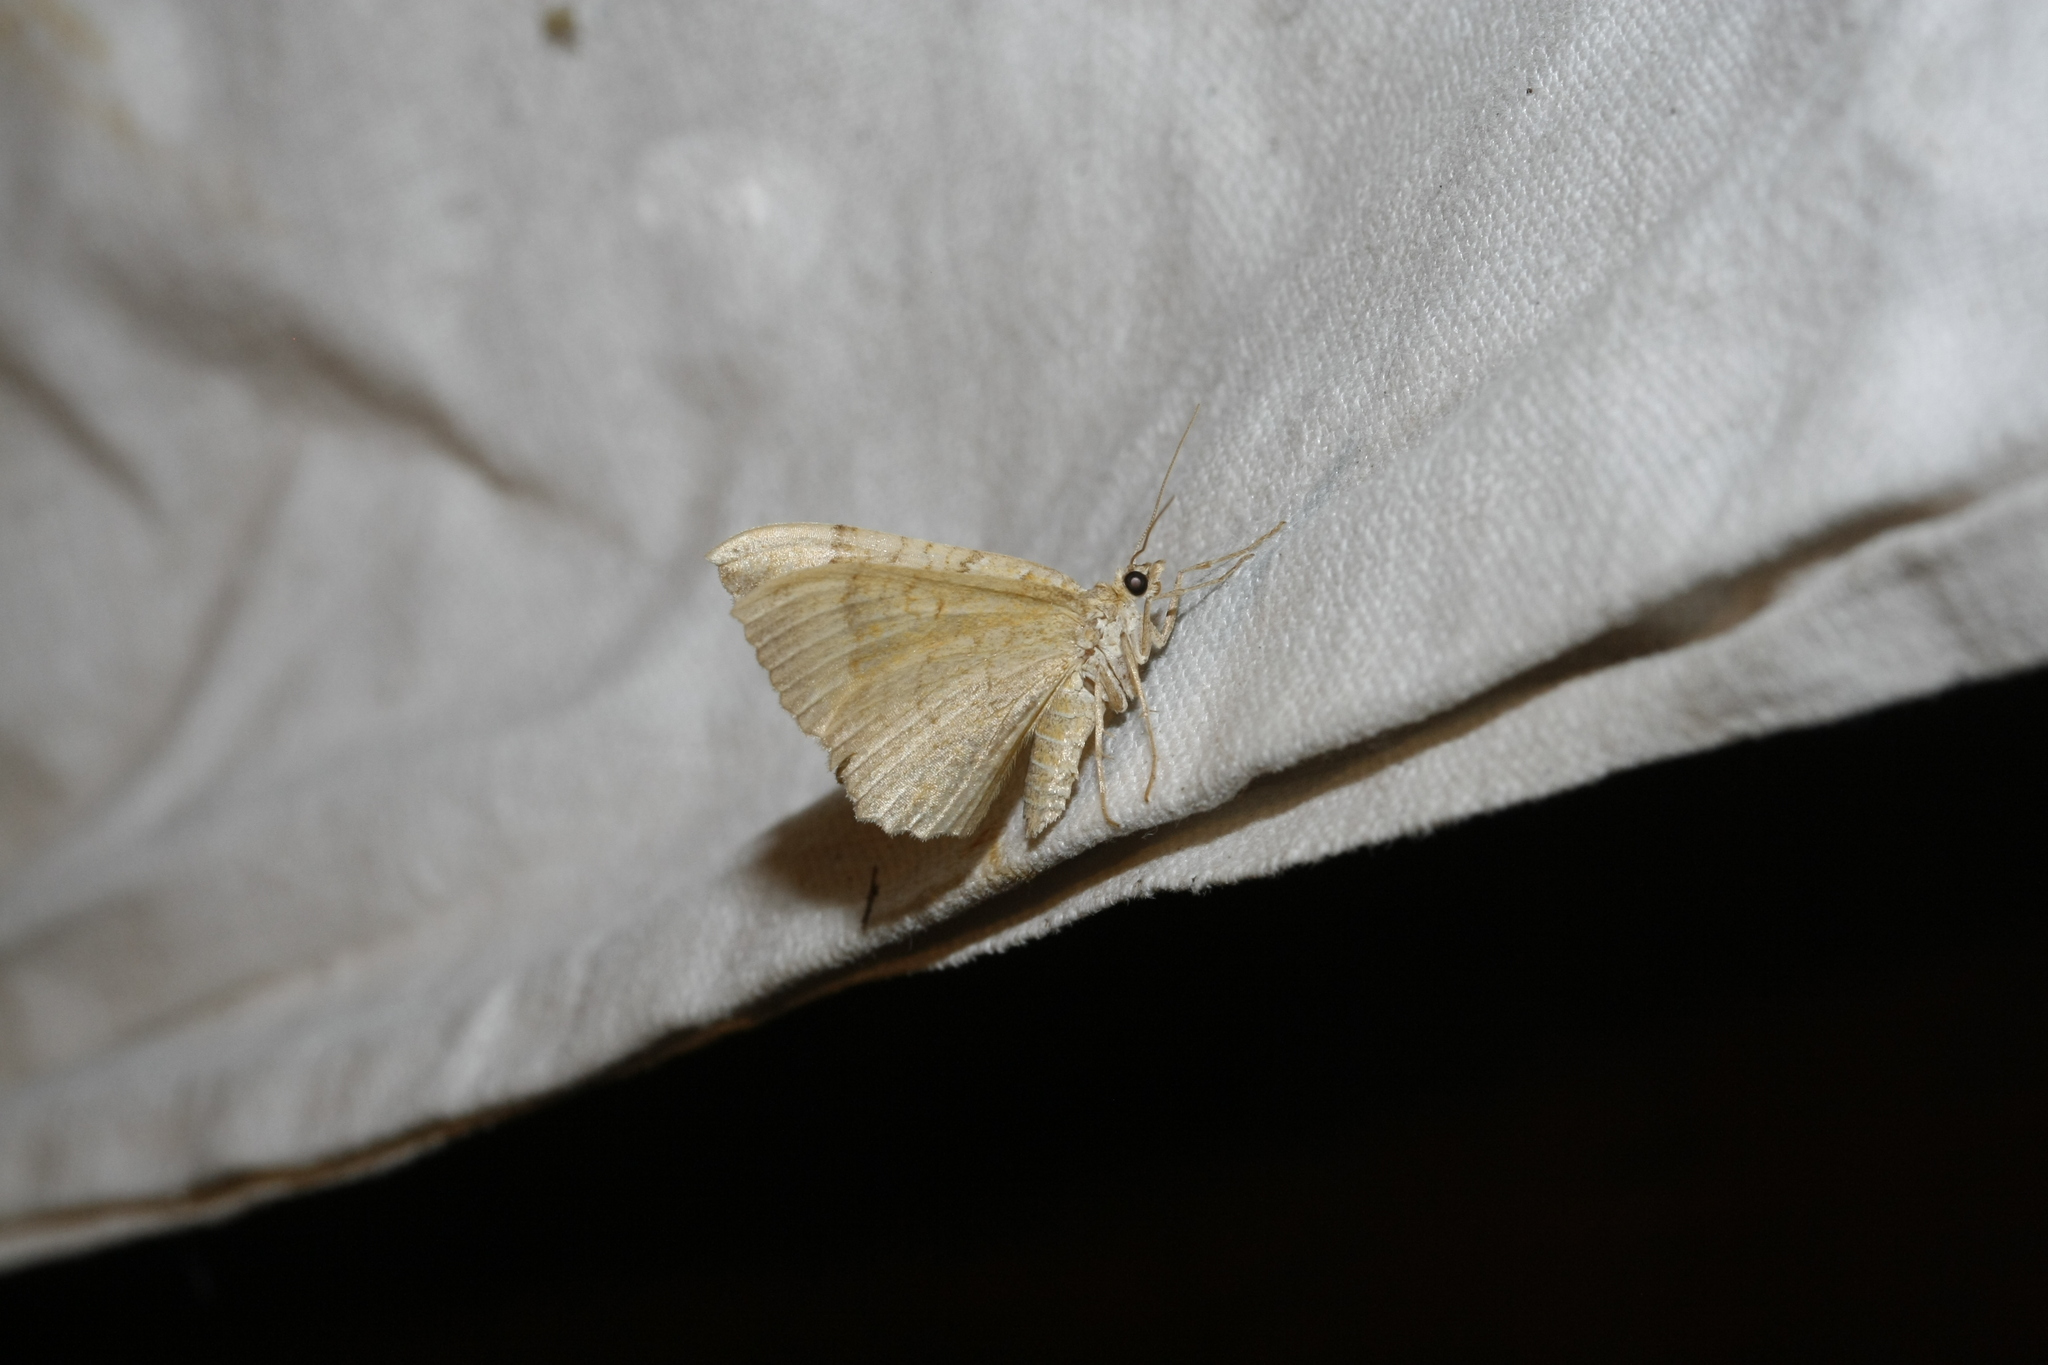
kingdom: Animalia
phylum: Arthropoda
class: Insecta
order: Lepidoptera
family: Geometridae
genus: Camptogramma
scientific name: Camptogramma bilineata
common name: Yellow shell
